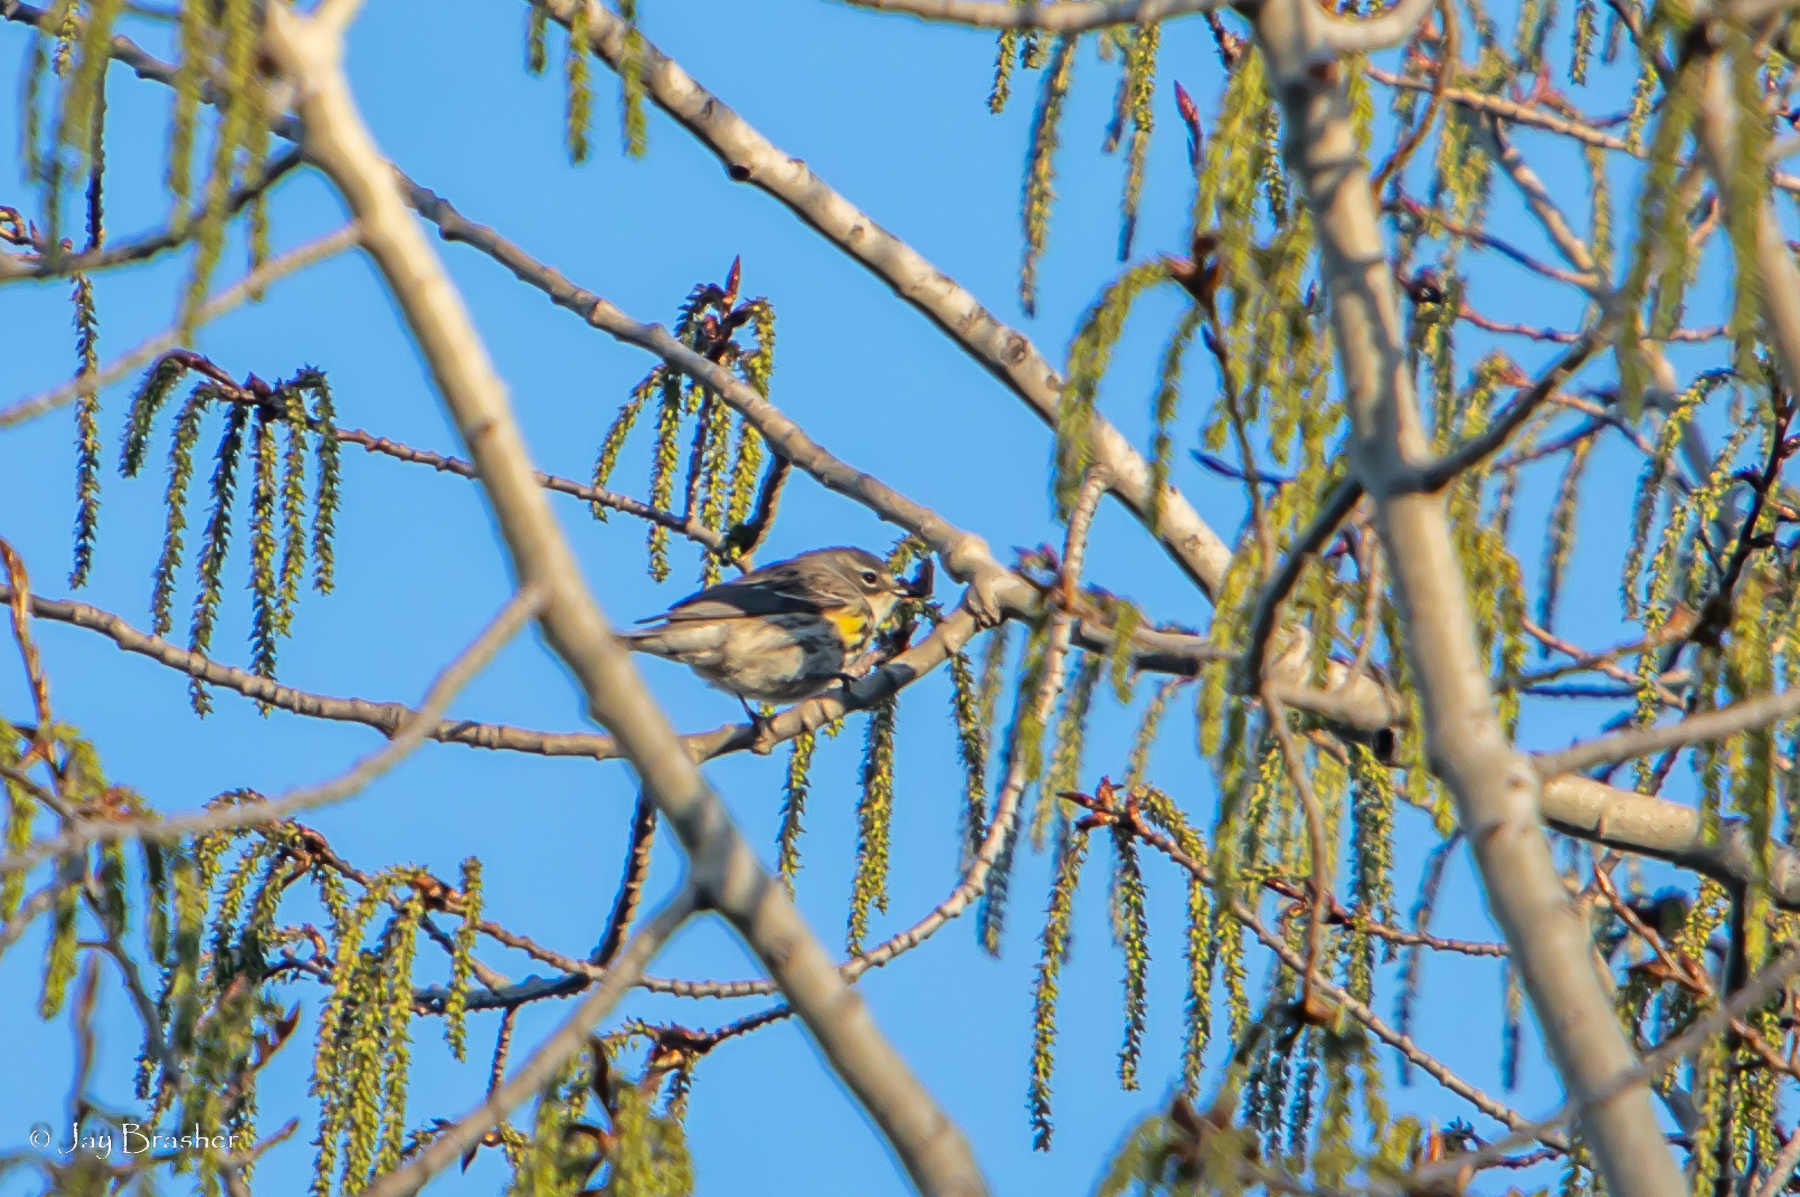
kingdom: Animalia
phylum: Chordata
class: Aves
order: Passeriformes
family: Parulidae
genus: Setophaga
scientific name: Setophaga coronata
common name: Myrtle warbler
